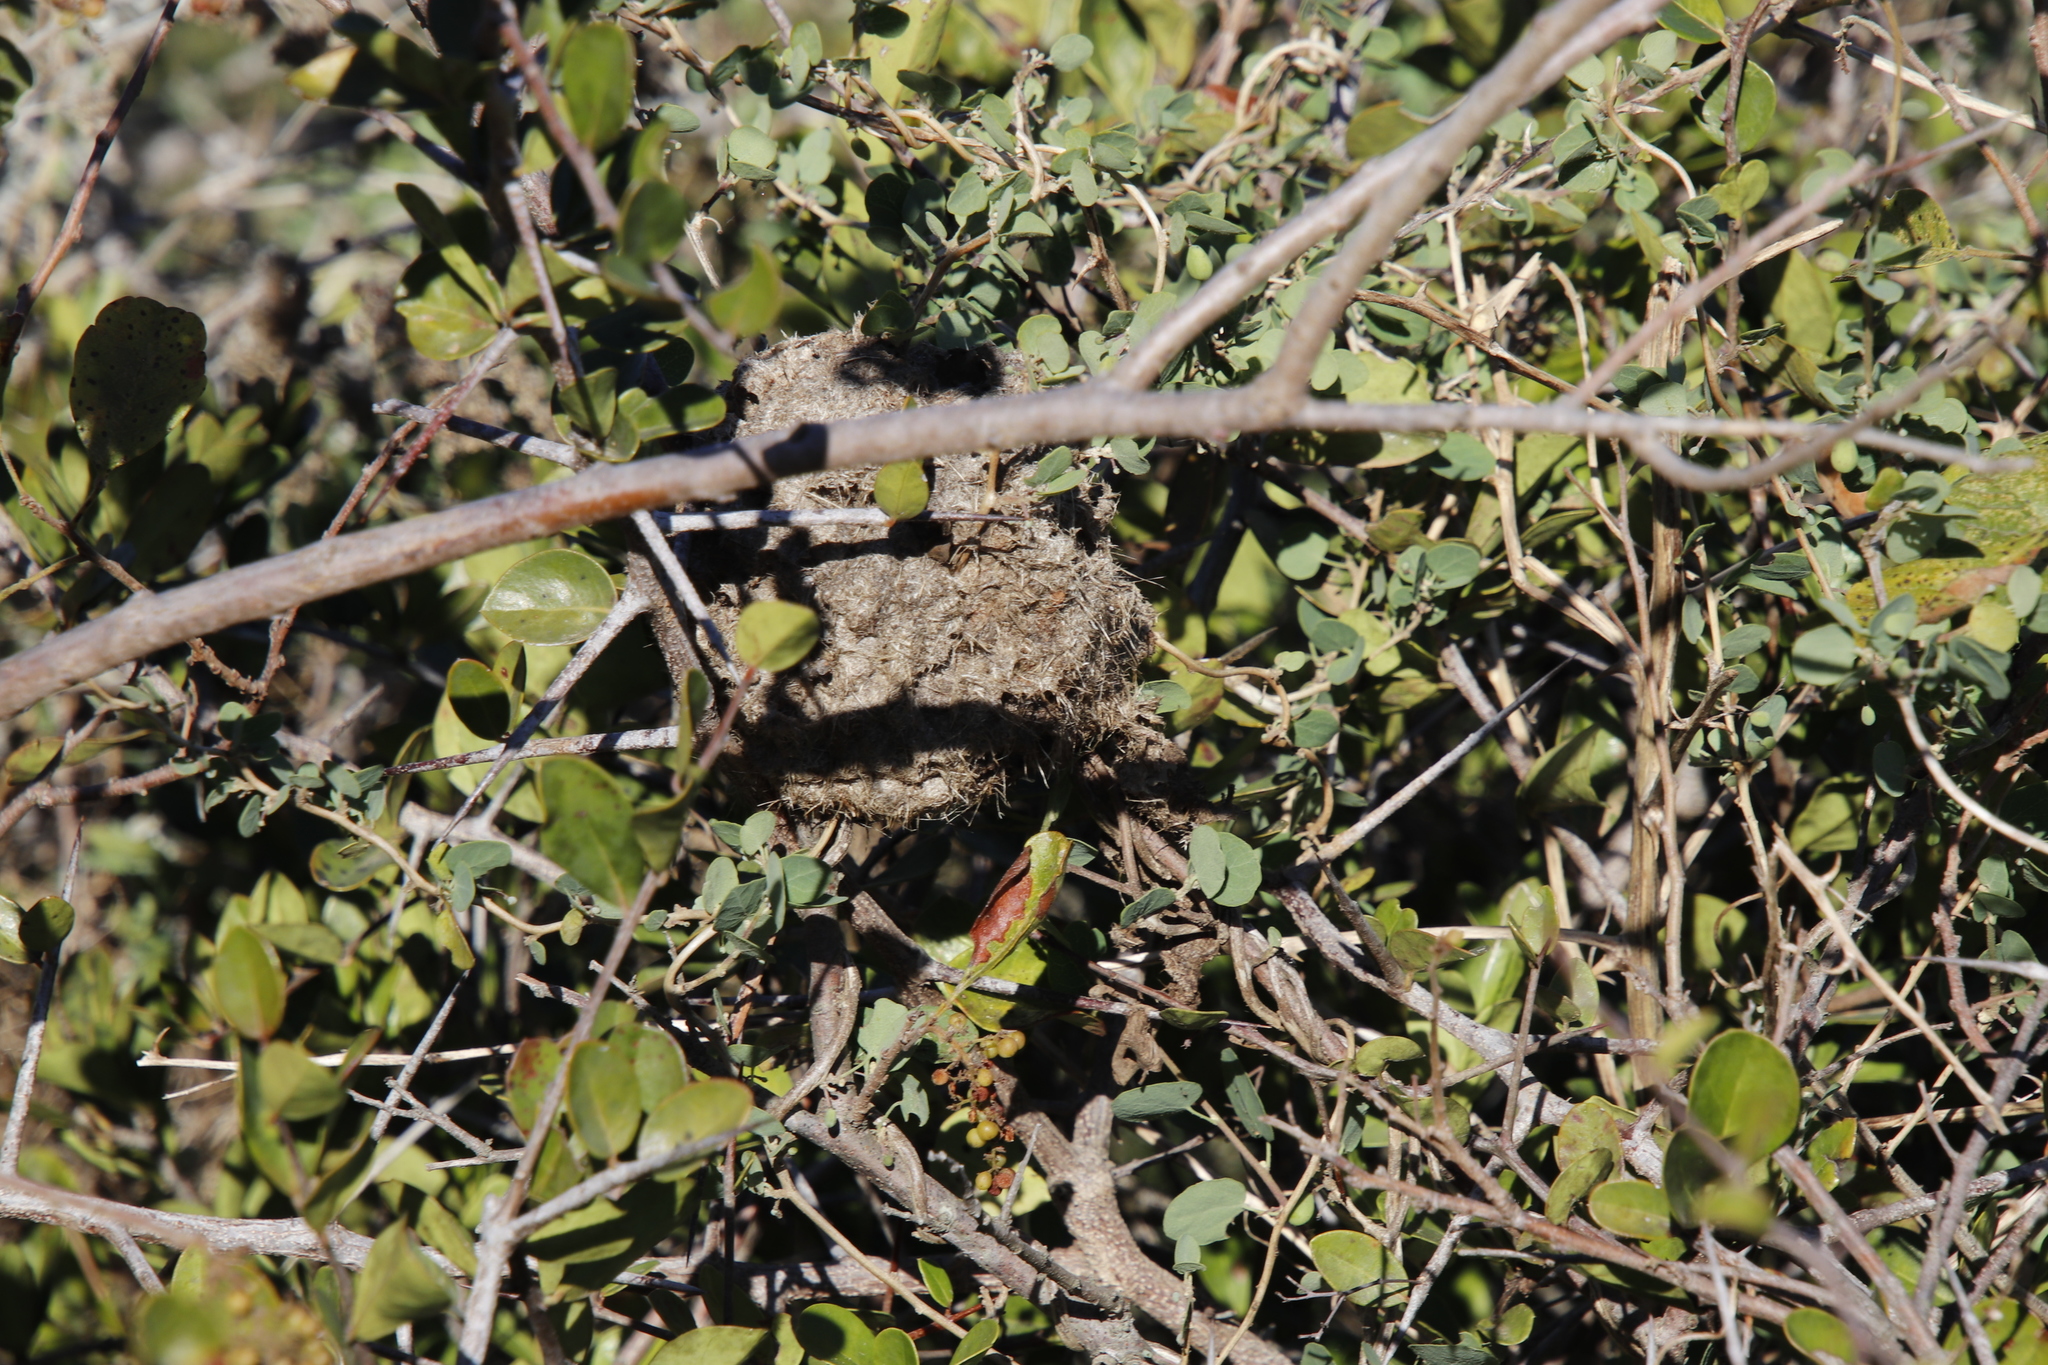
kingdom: Animalia
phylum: Arthropoda
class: Insecta
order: Hymenoptera
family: Formicidae
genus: Crematogaster
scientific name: Crematogaster peringueyi
